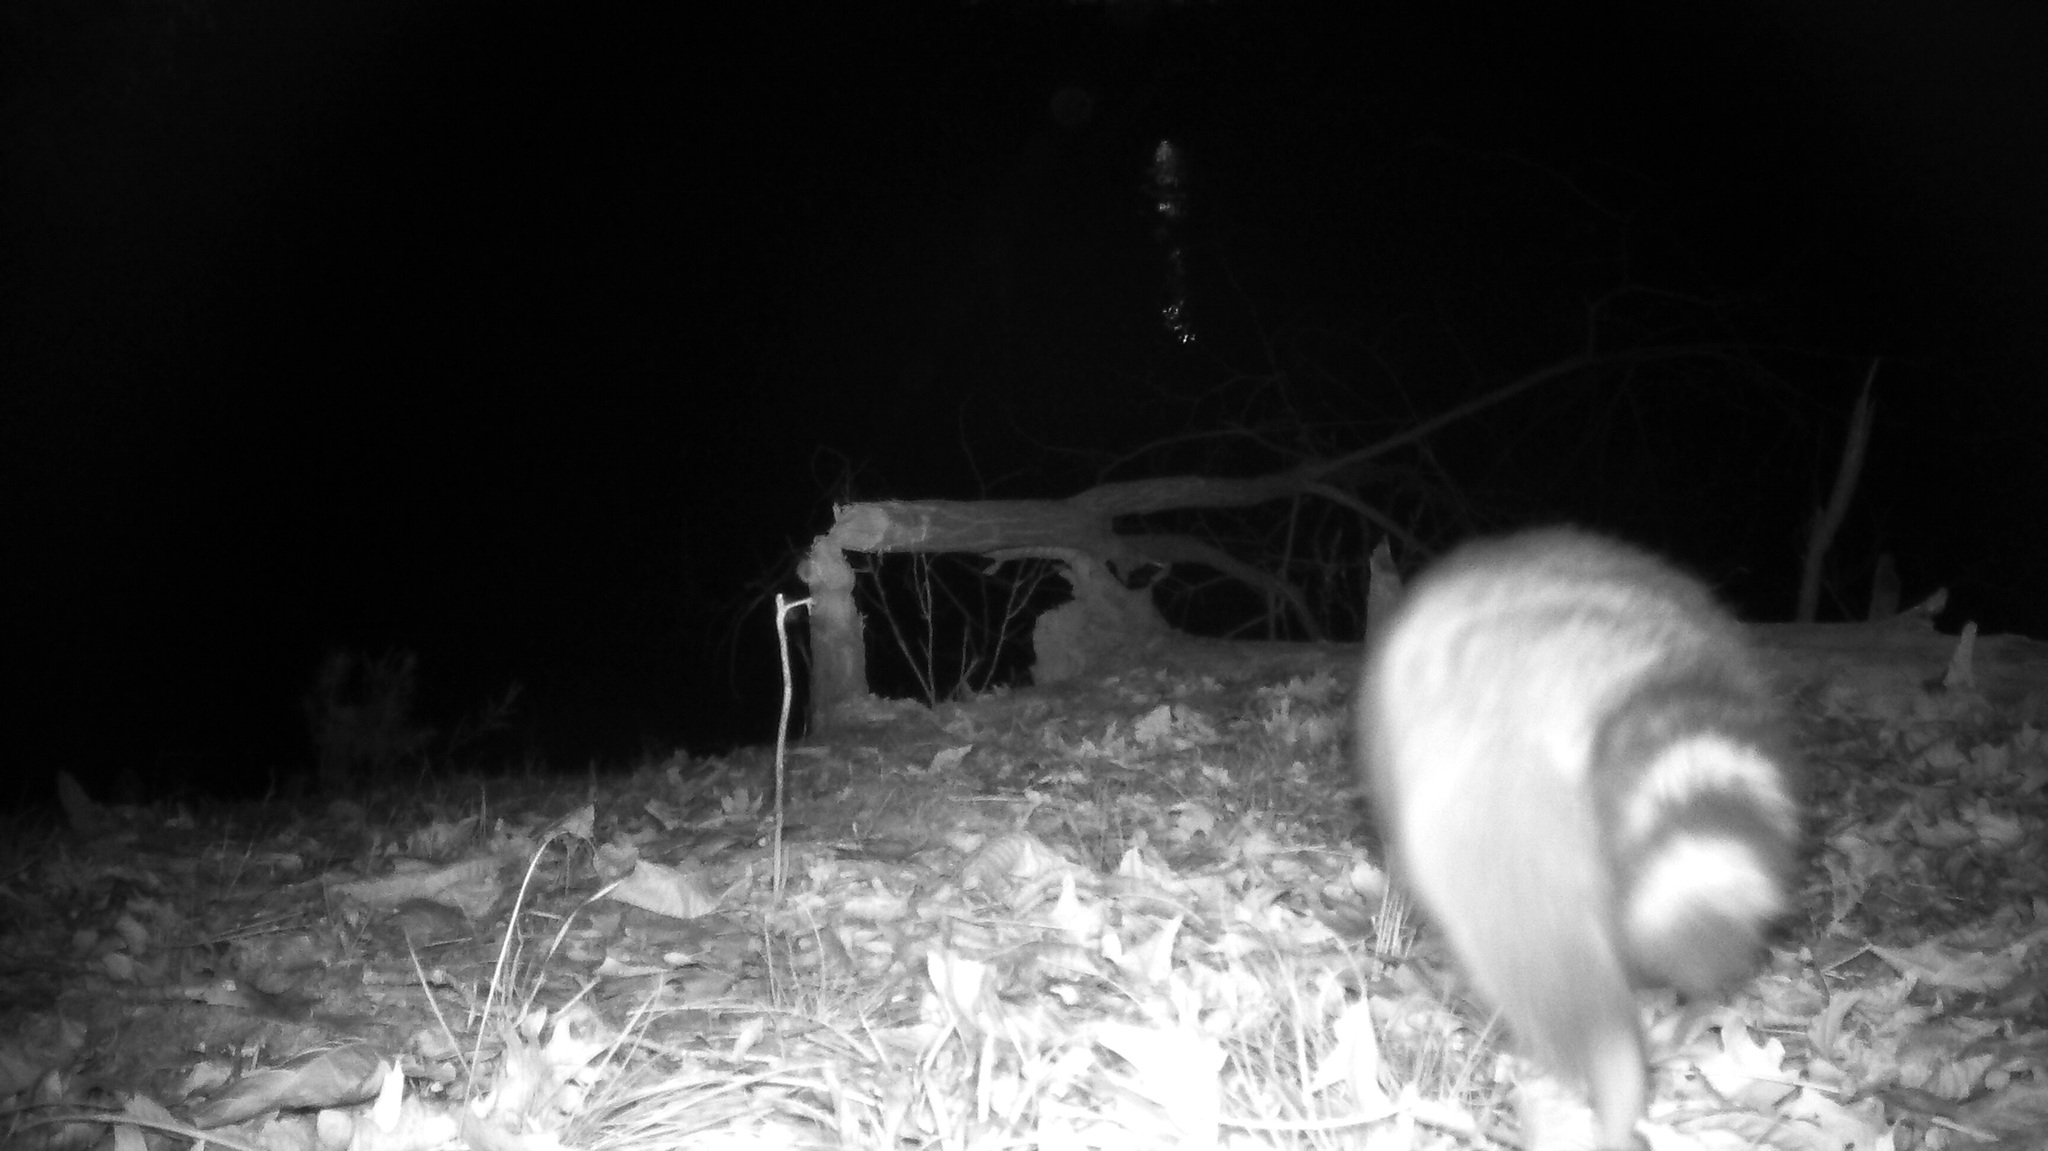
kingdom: Animalia
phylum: Chordata
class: Mammalia
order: Carnivora
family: Procyonidae
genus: Procyon
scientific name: Procyon lotor
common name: Raccoon
